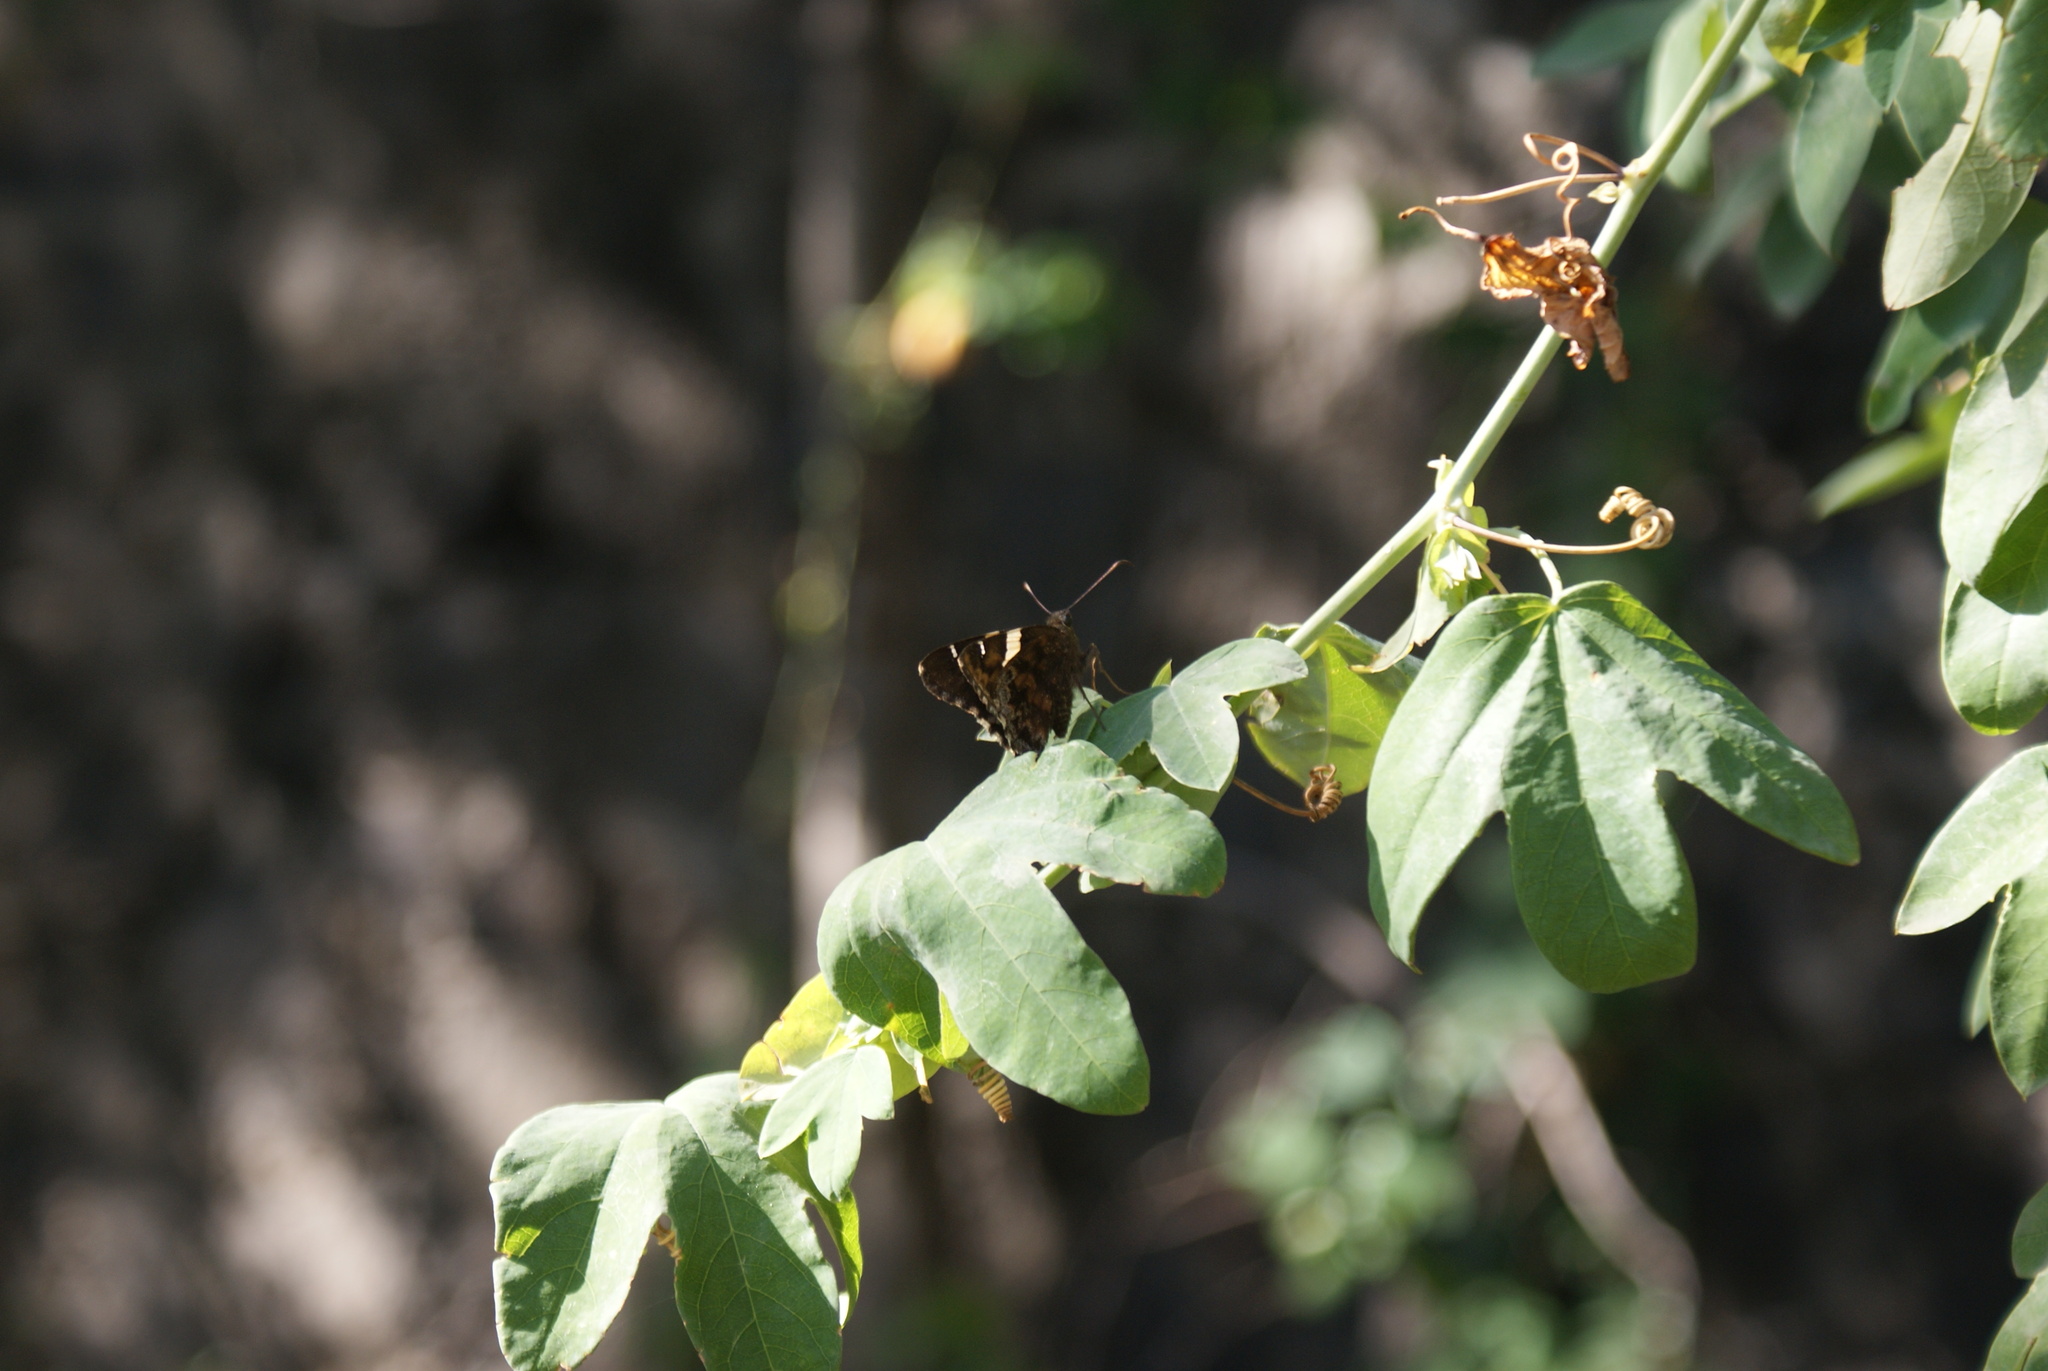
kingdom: Animalia
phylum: Arthropoda
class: Arachnida
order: Scorpiones
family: Bothriuridae
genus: Telegonus
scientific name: Telegonus cellus
